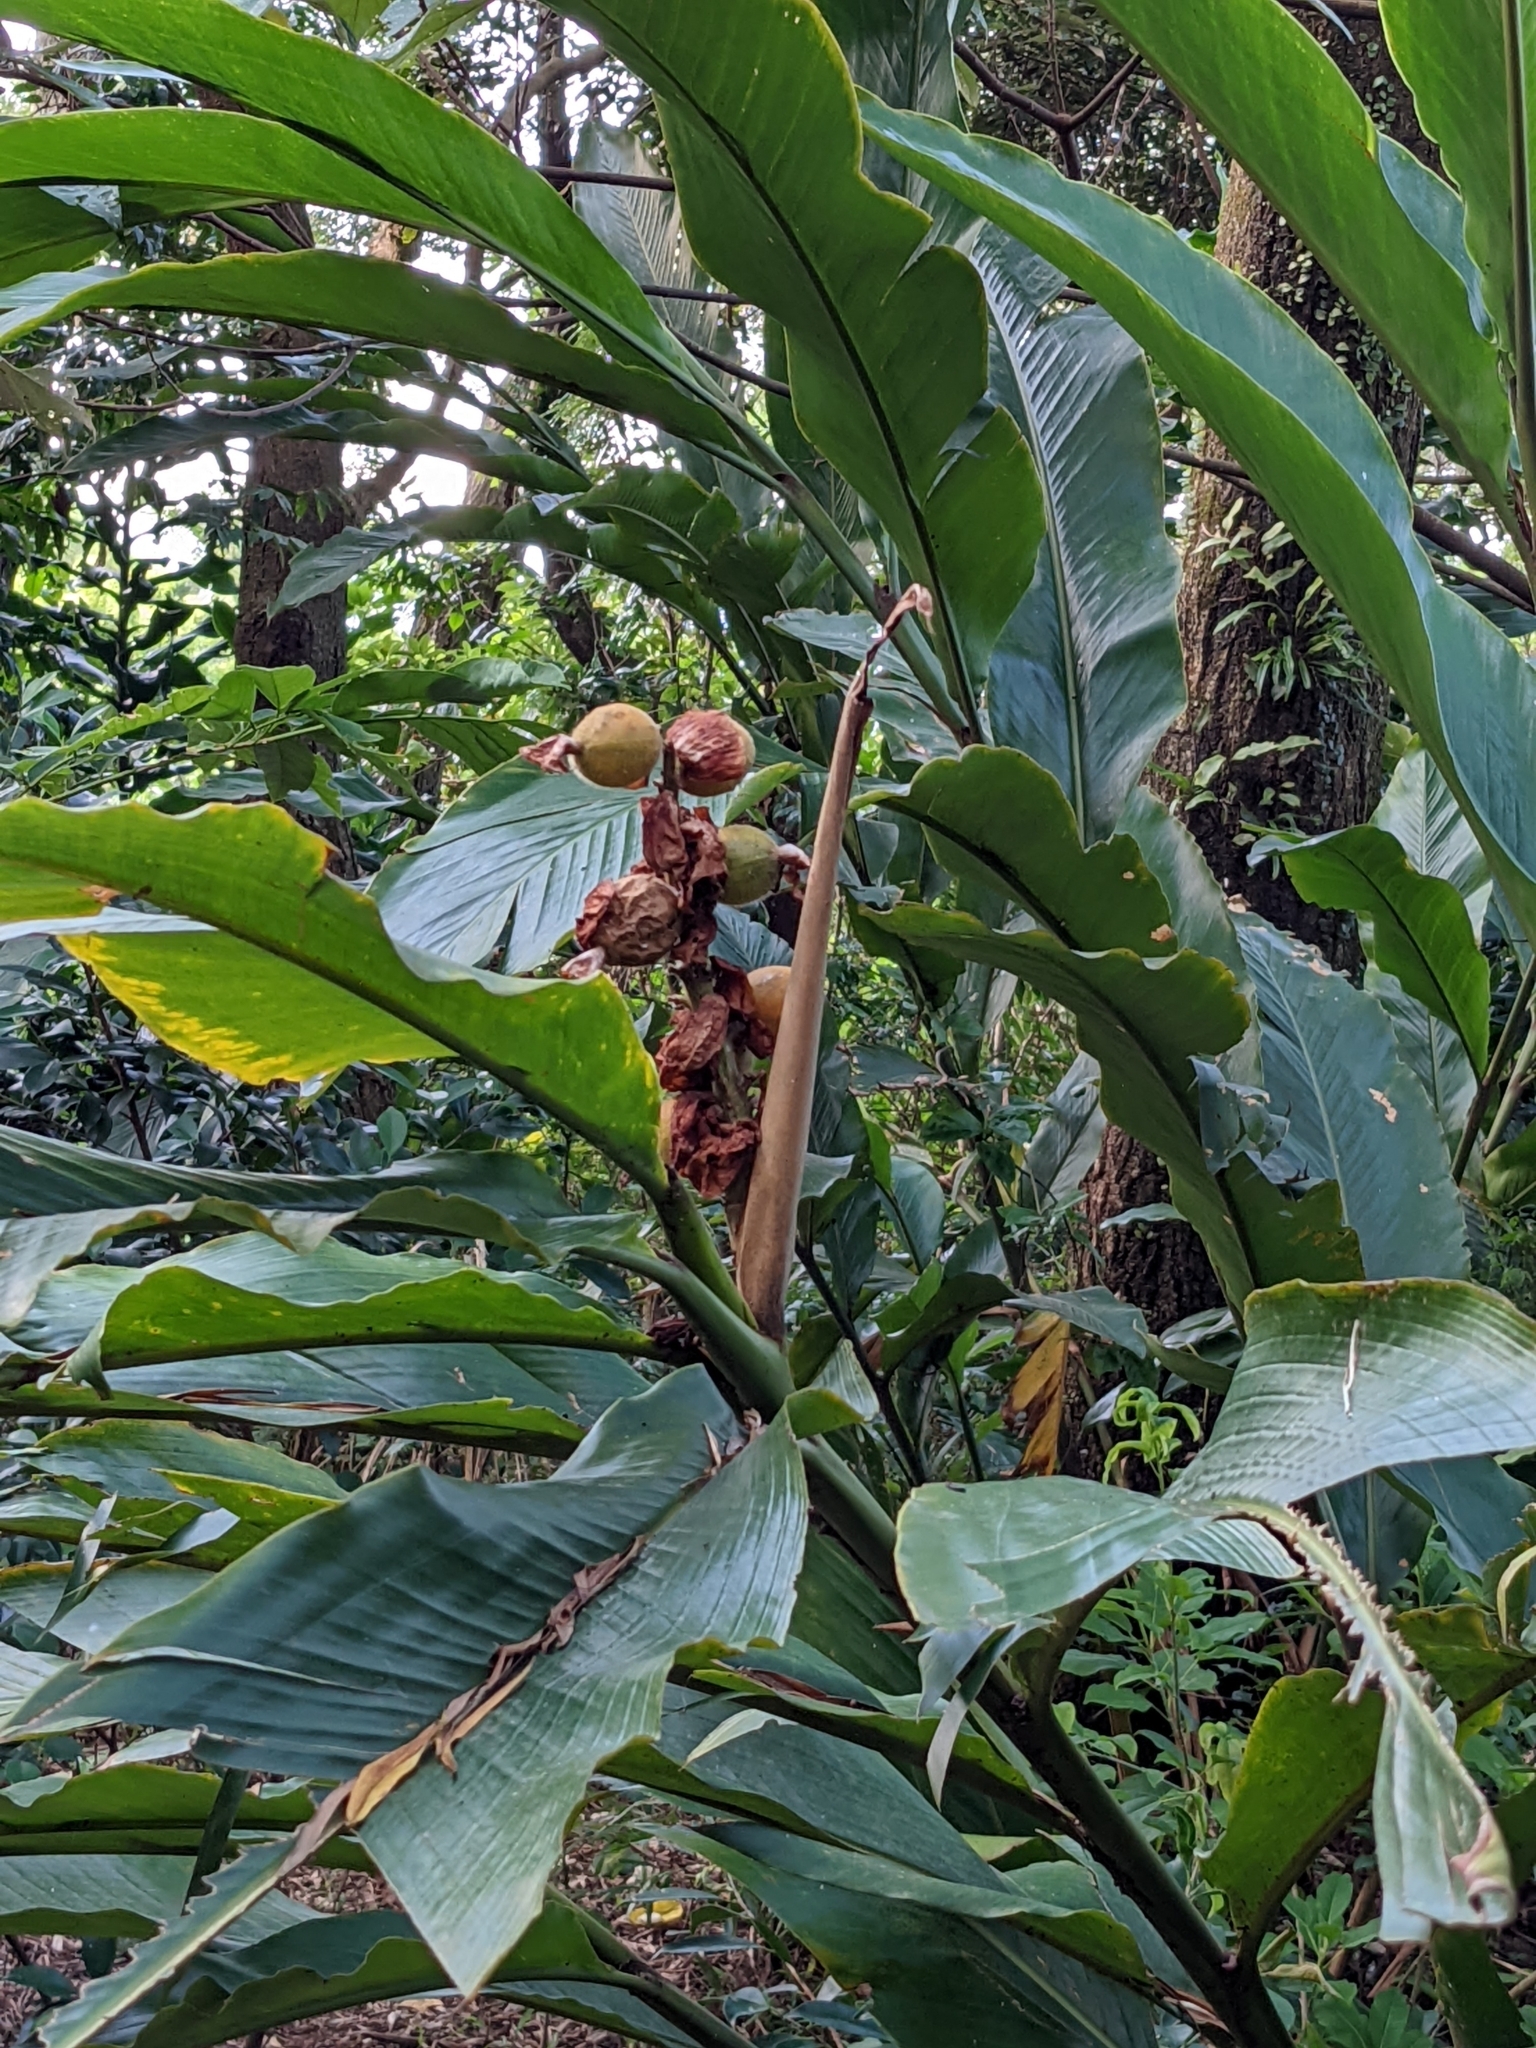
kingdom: Plantae
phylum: Tracheophyta
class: Liliopsida
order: Zingiberales
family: Zingiberaceae
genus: Alpinia
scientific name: Alpinia uraiensis
